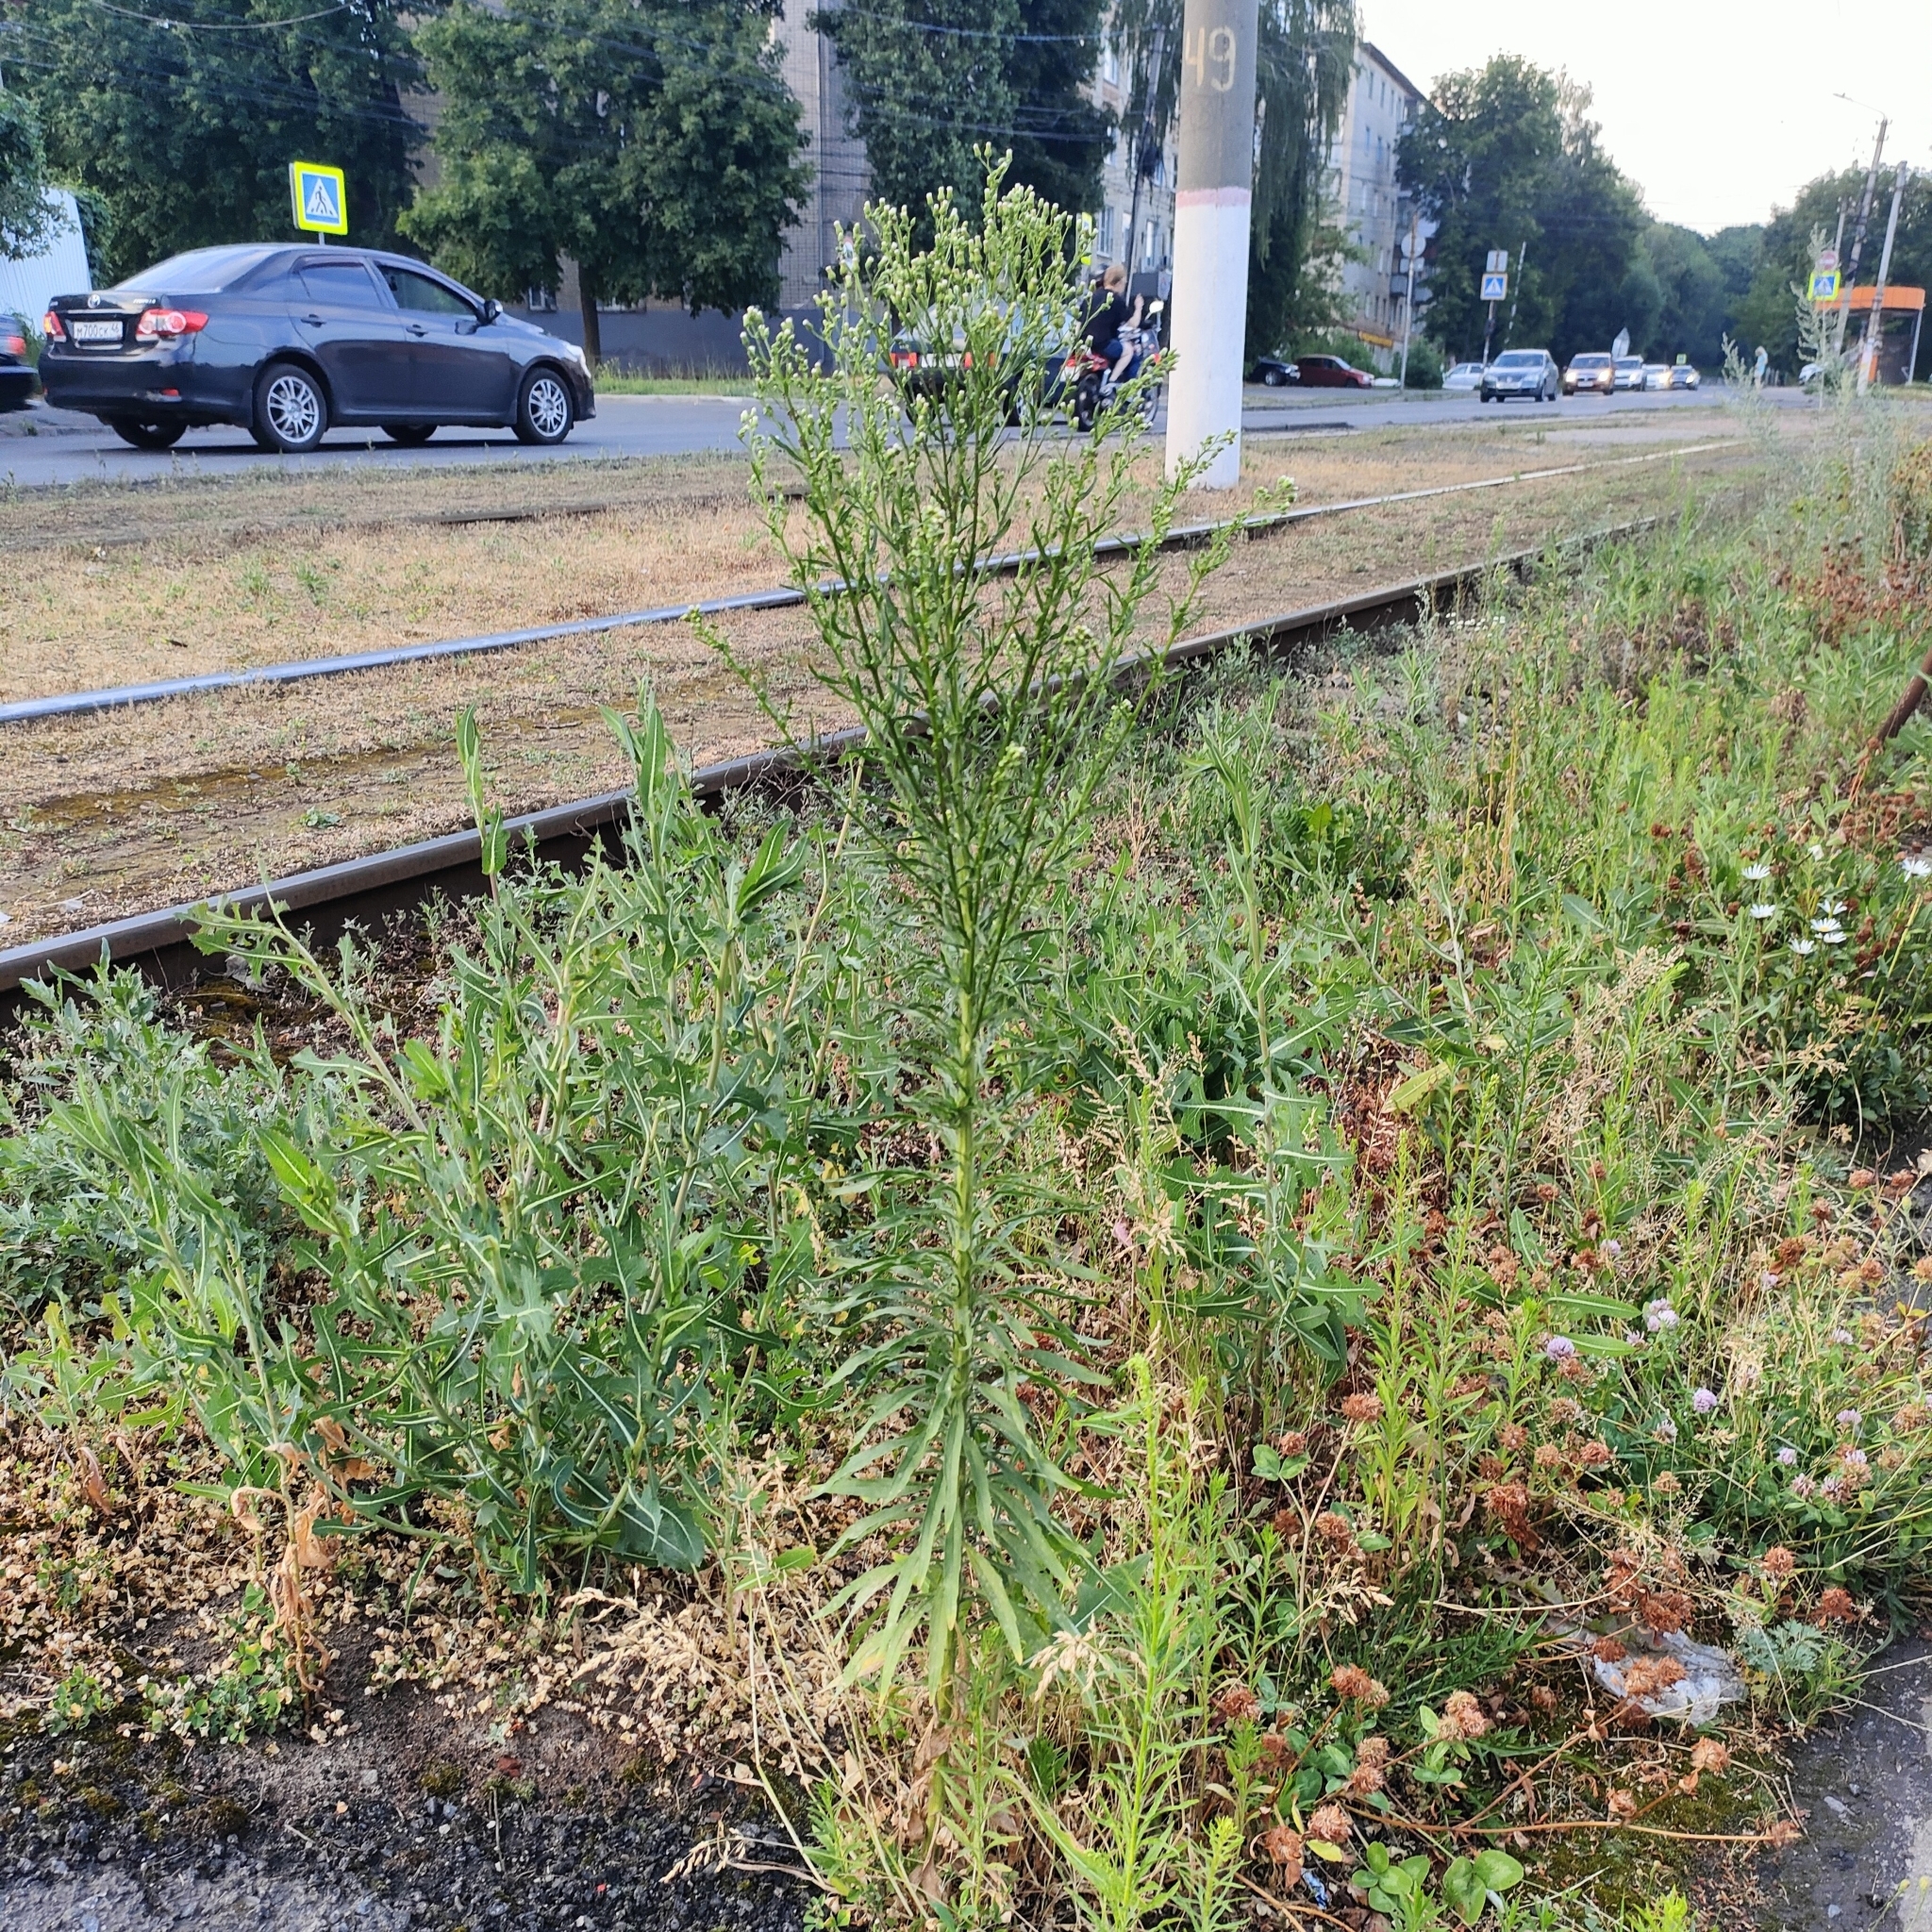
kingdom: Plantae
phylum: Tracheophyta
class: Magnoliopsida
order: Asterales
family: Asteraceae
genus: Erigeron
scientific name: Erigeron canadensis
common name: Canadian fleabane
